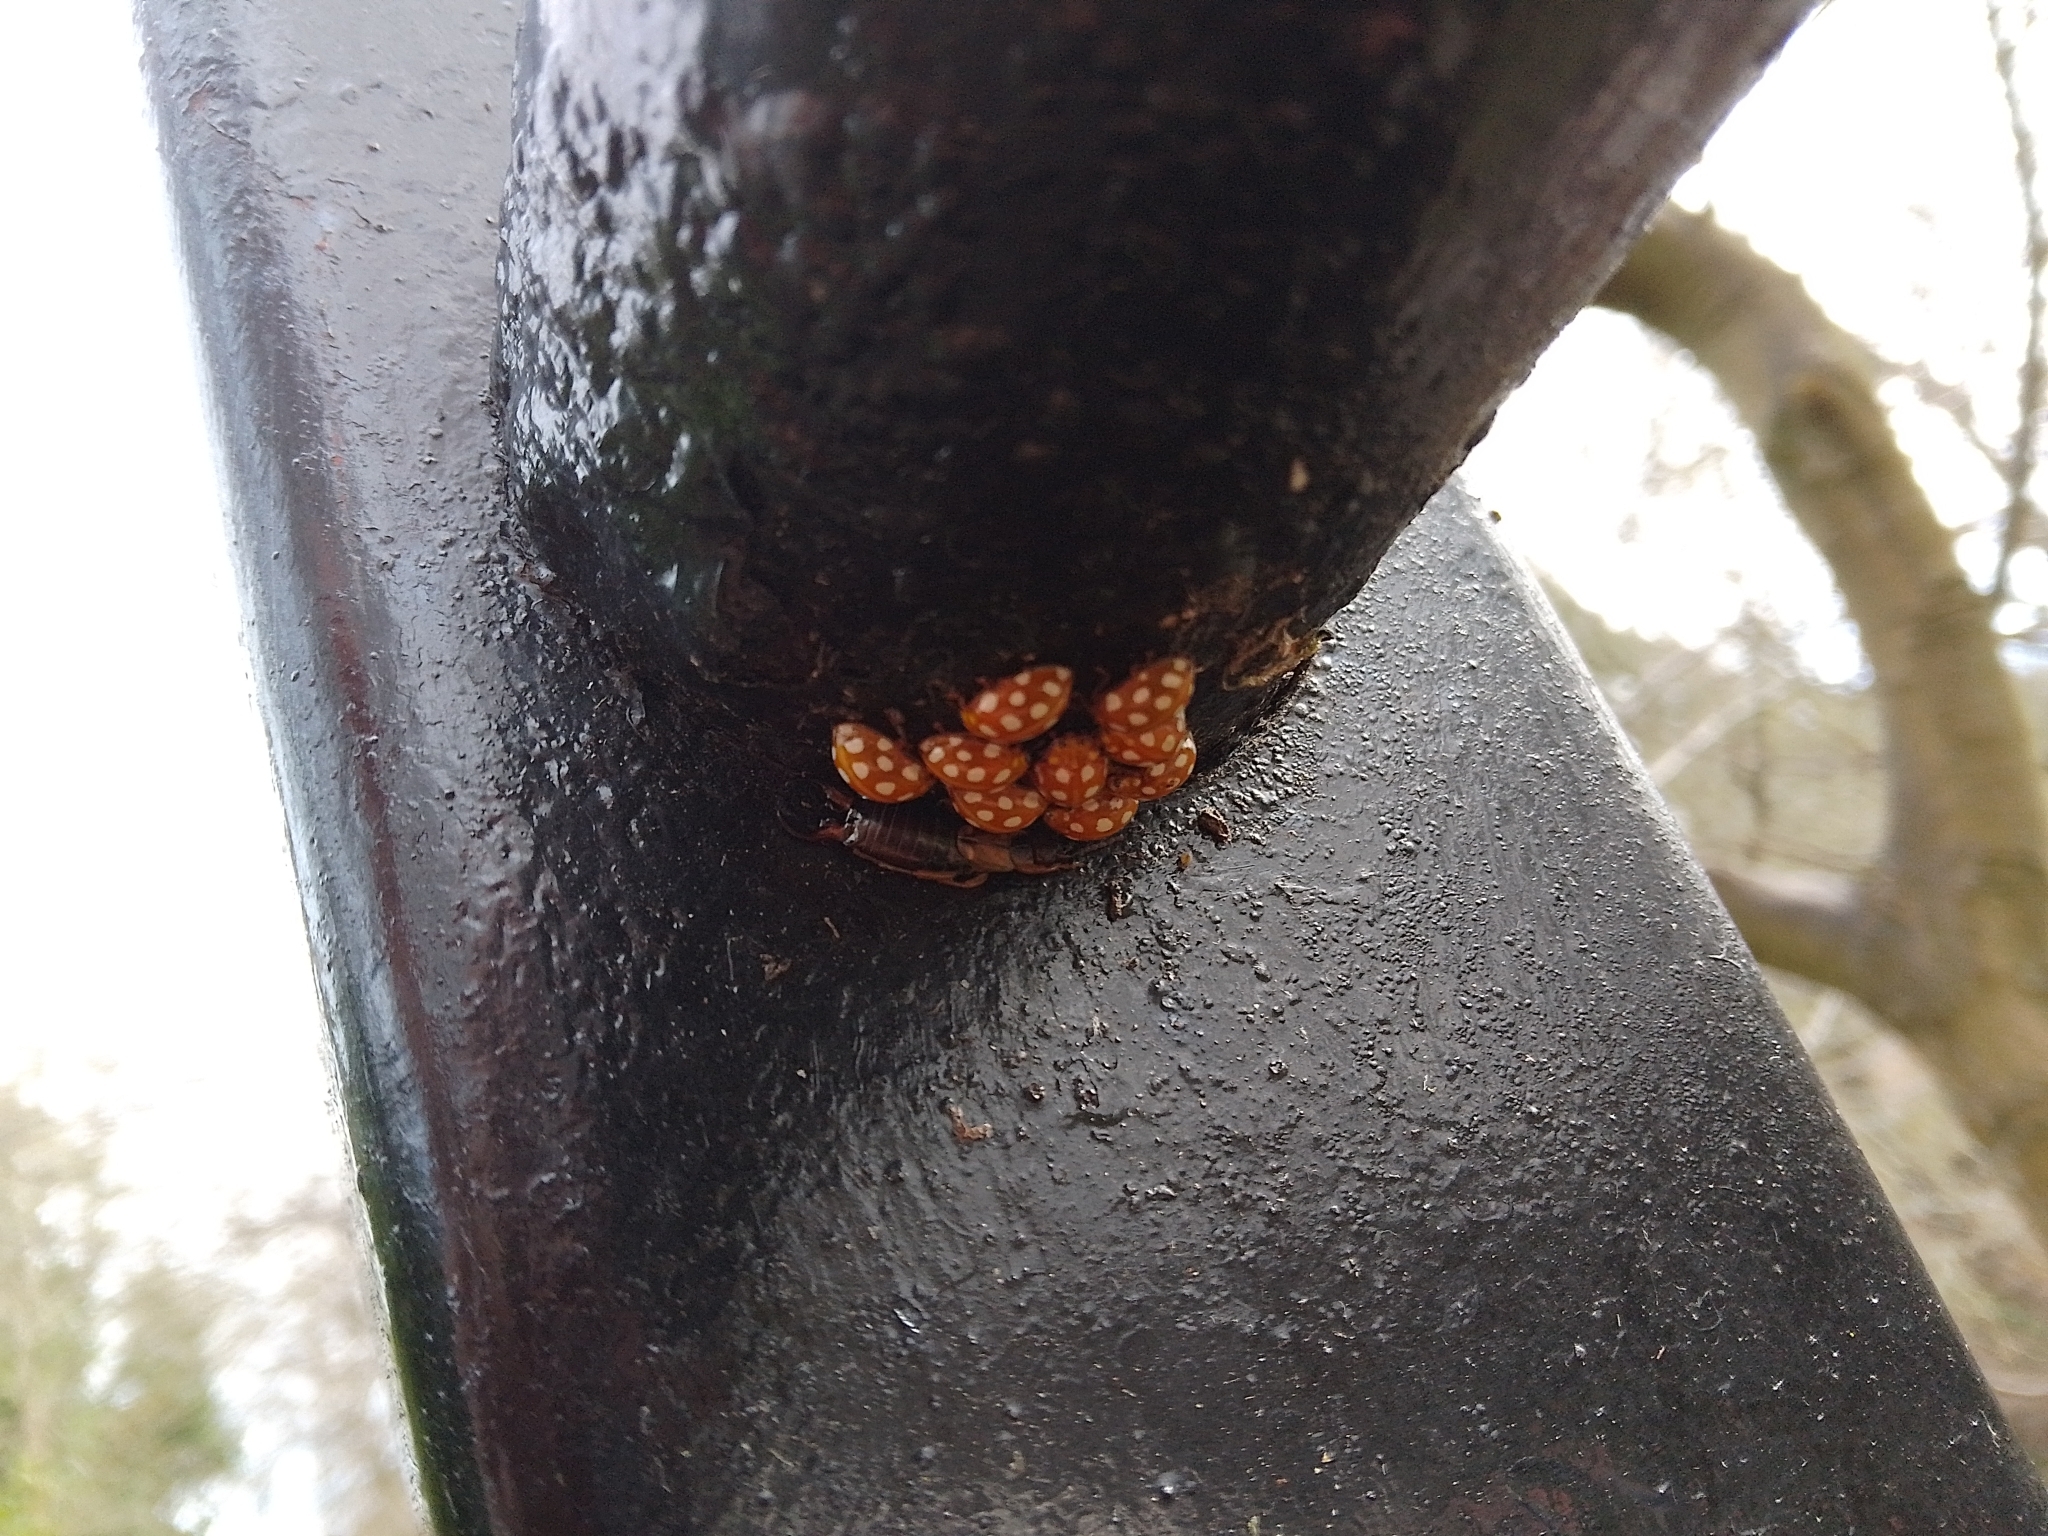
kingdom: Animalia
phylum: Arthropoda
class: Insecta
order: Coleoptera
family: Coccinellidae
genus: Halyzia
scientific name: Halyzia sedecimguttata
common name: Orange ladybird
